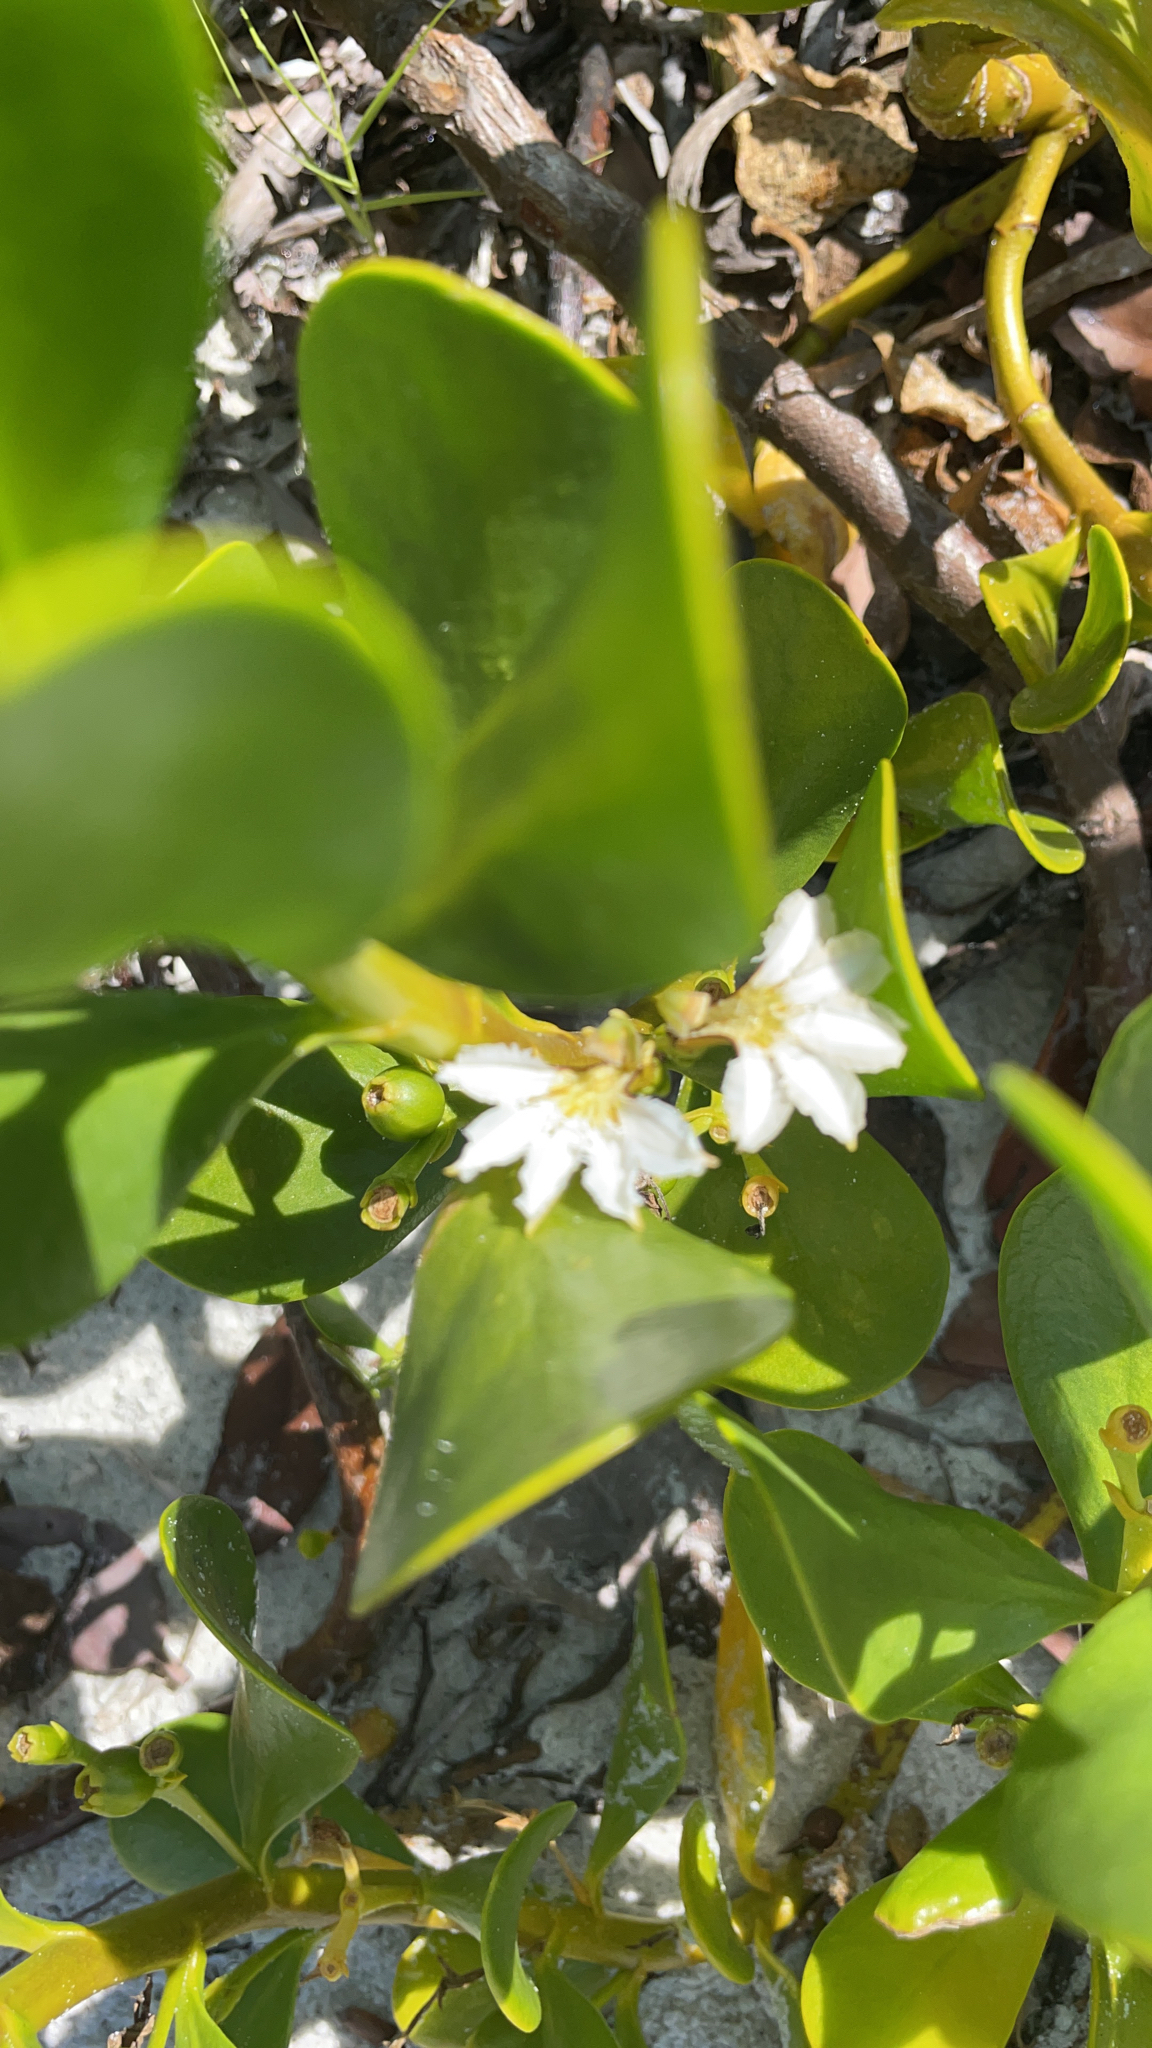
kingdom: Plantae
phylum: Tracheophyta
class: Magnoliopsida
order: Asterales
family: Goodeniaceae
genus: Scaevola
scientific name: Scaevola plumieri
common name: Gull feed
